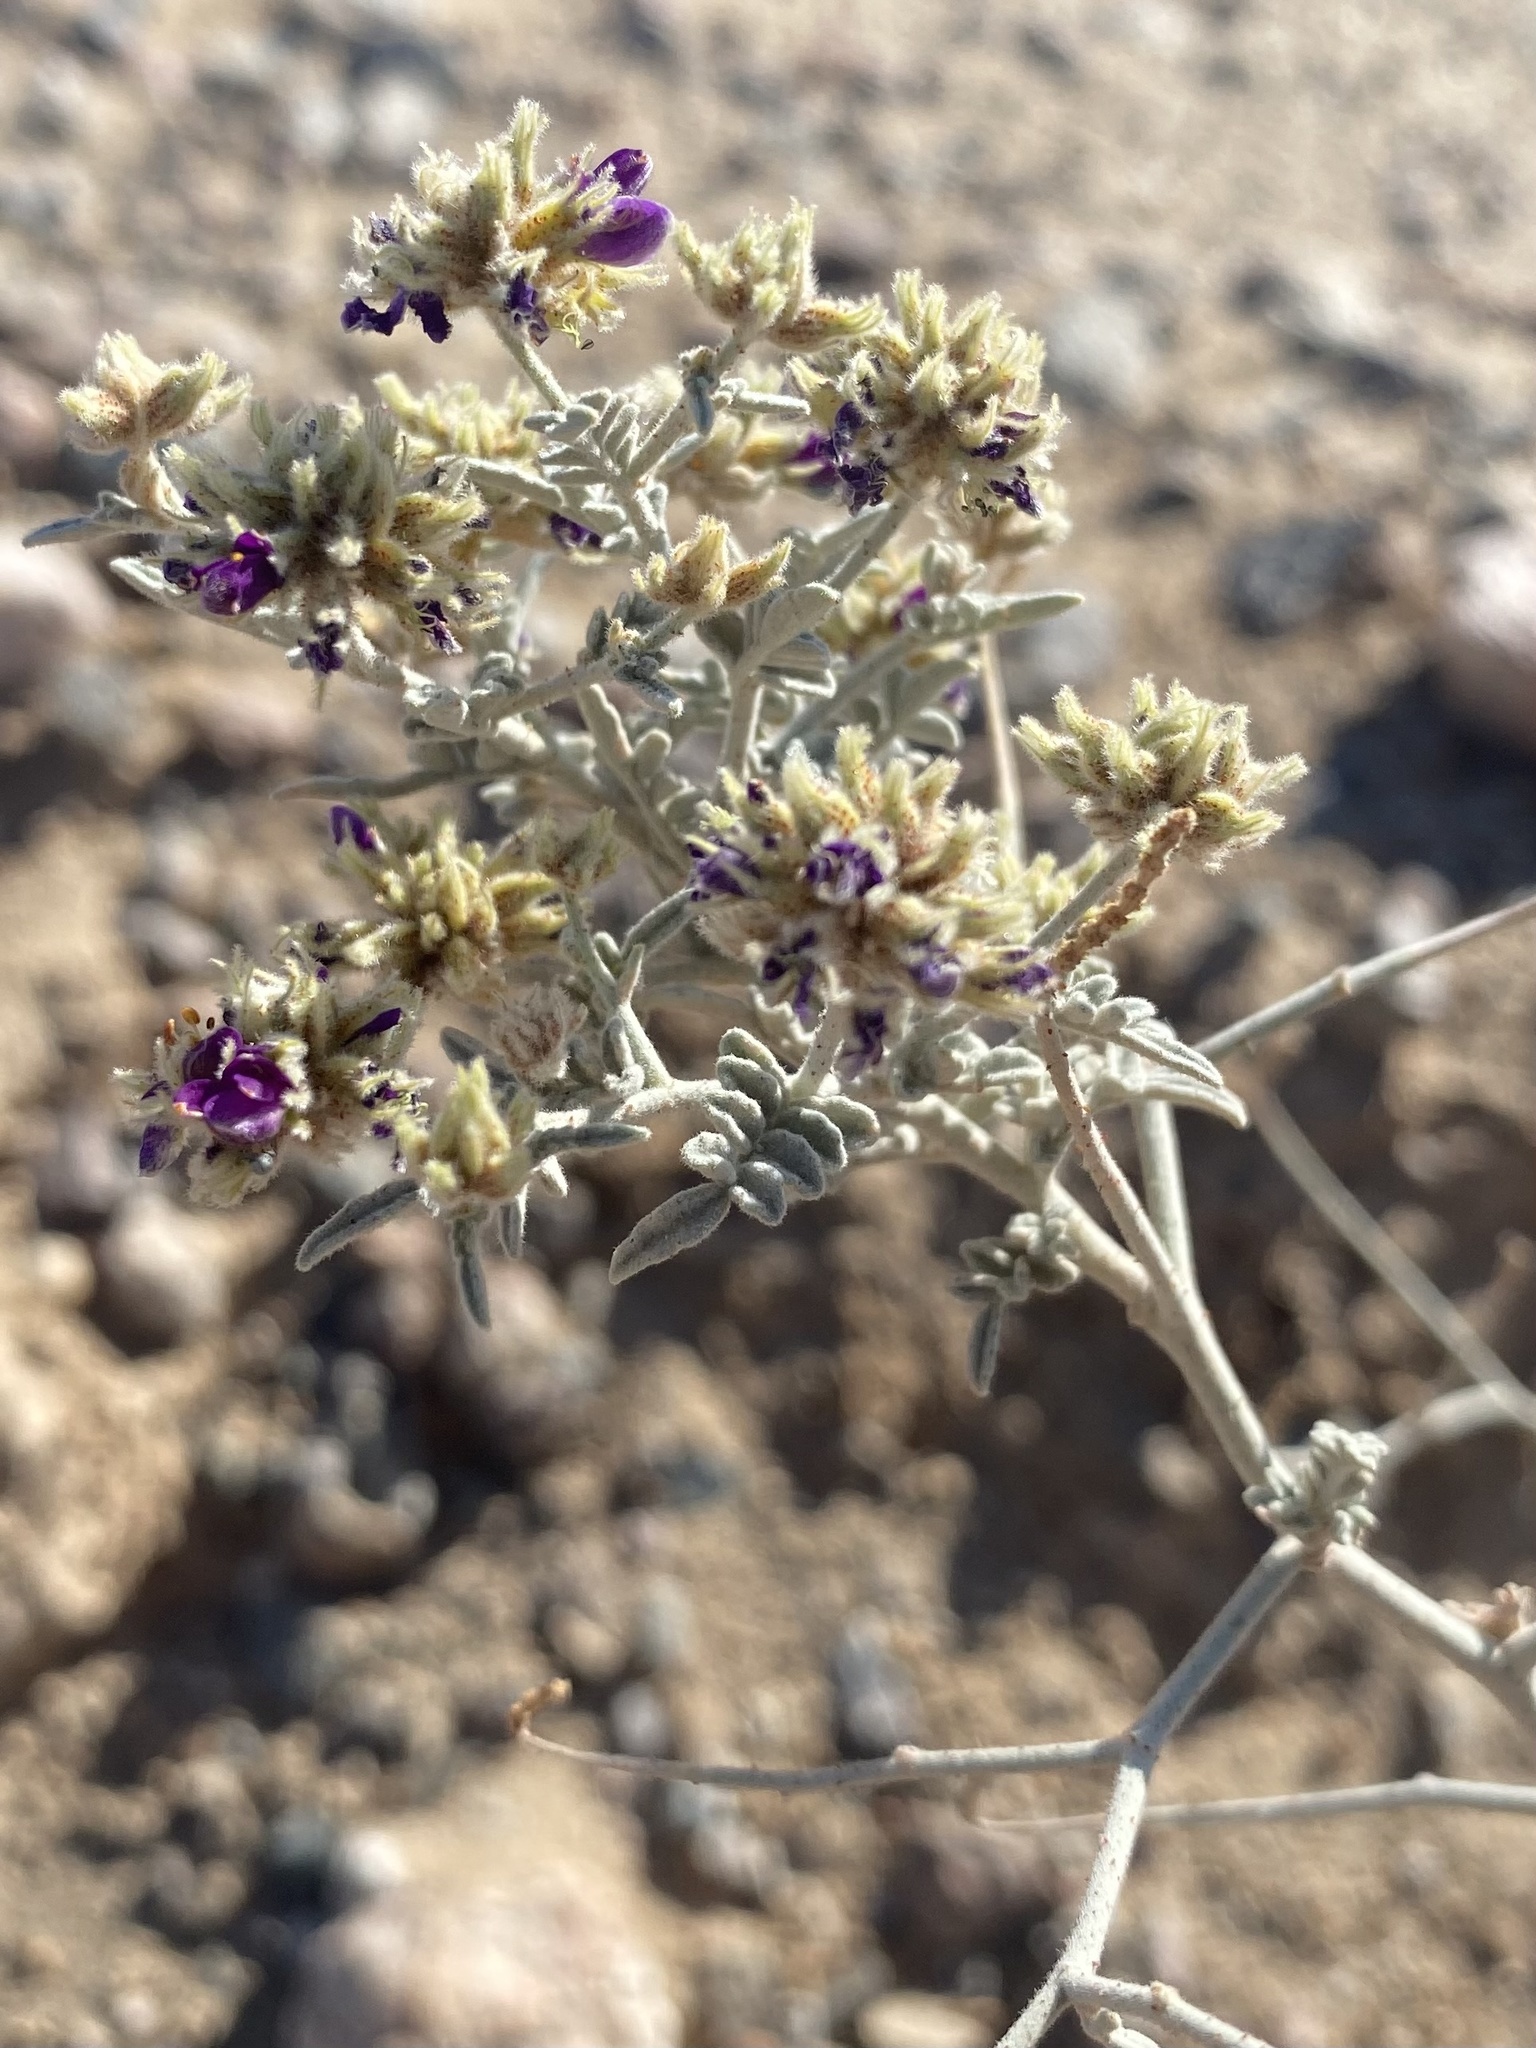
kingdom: Plantae
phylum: Tracheophyta
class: Magnoliopsida
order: Fabales
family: Fabaceae
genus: Psorothamnus
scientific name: Psorothamnus emoryi
